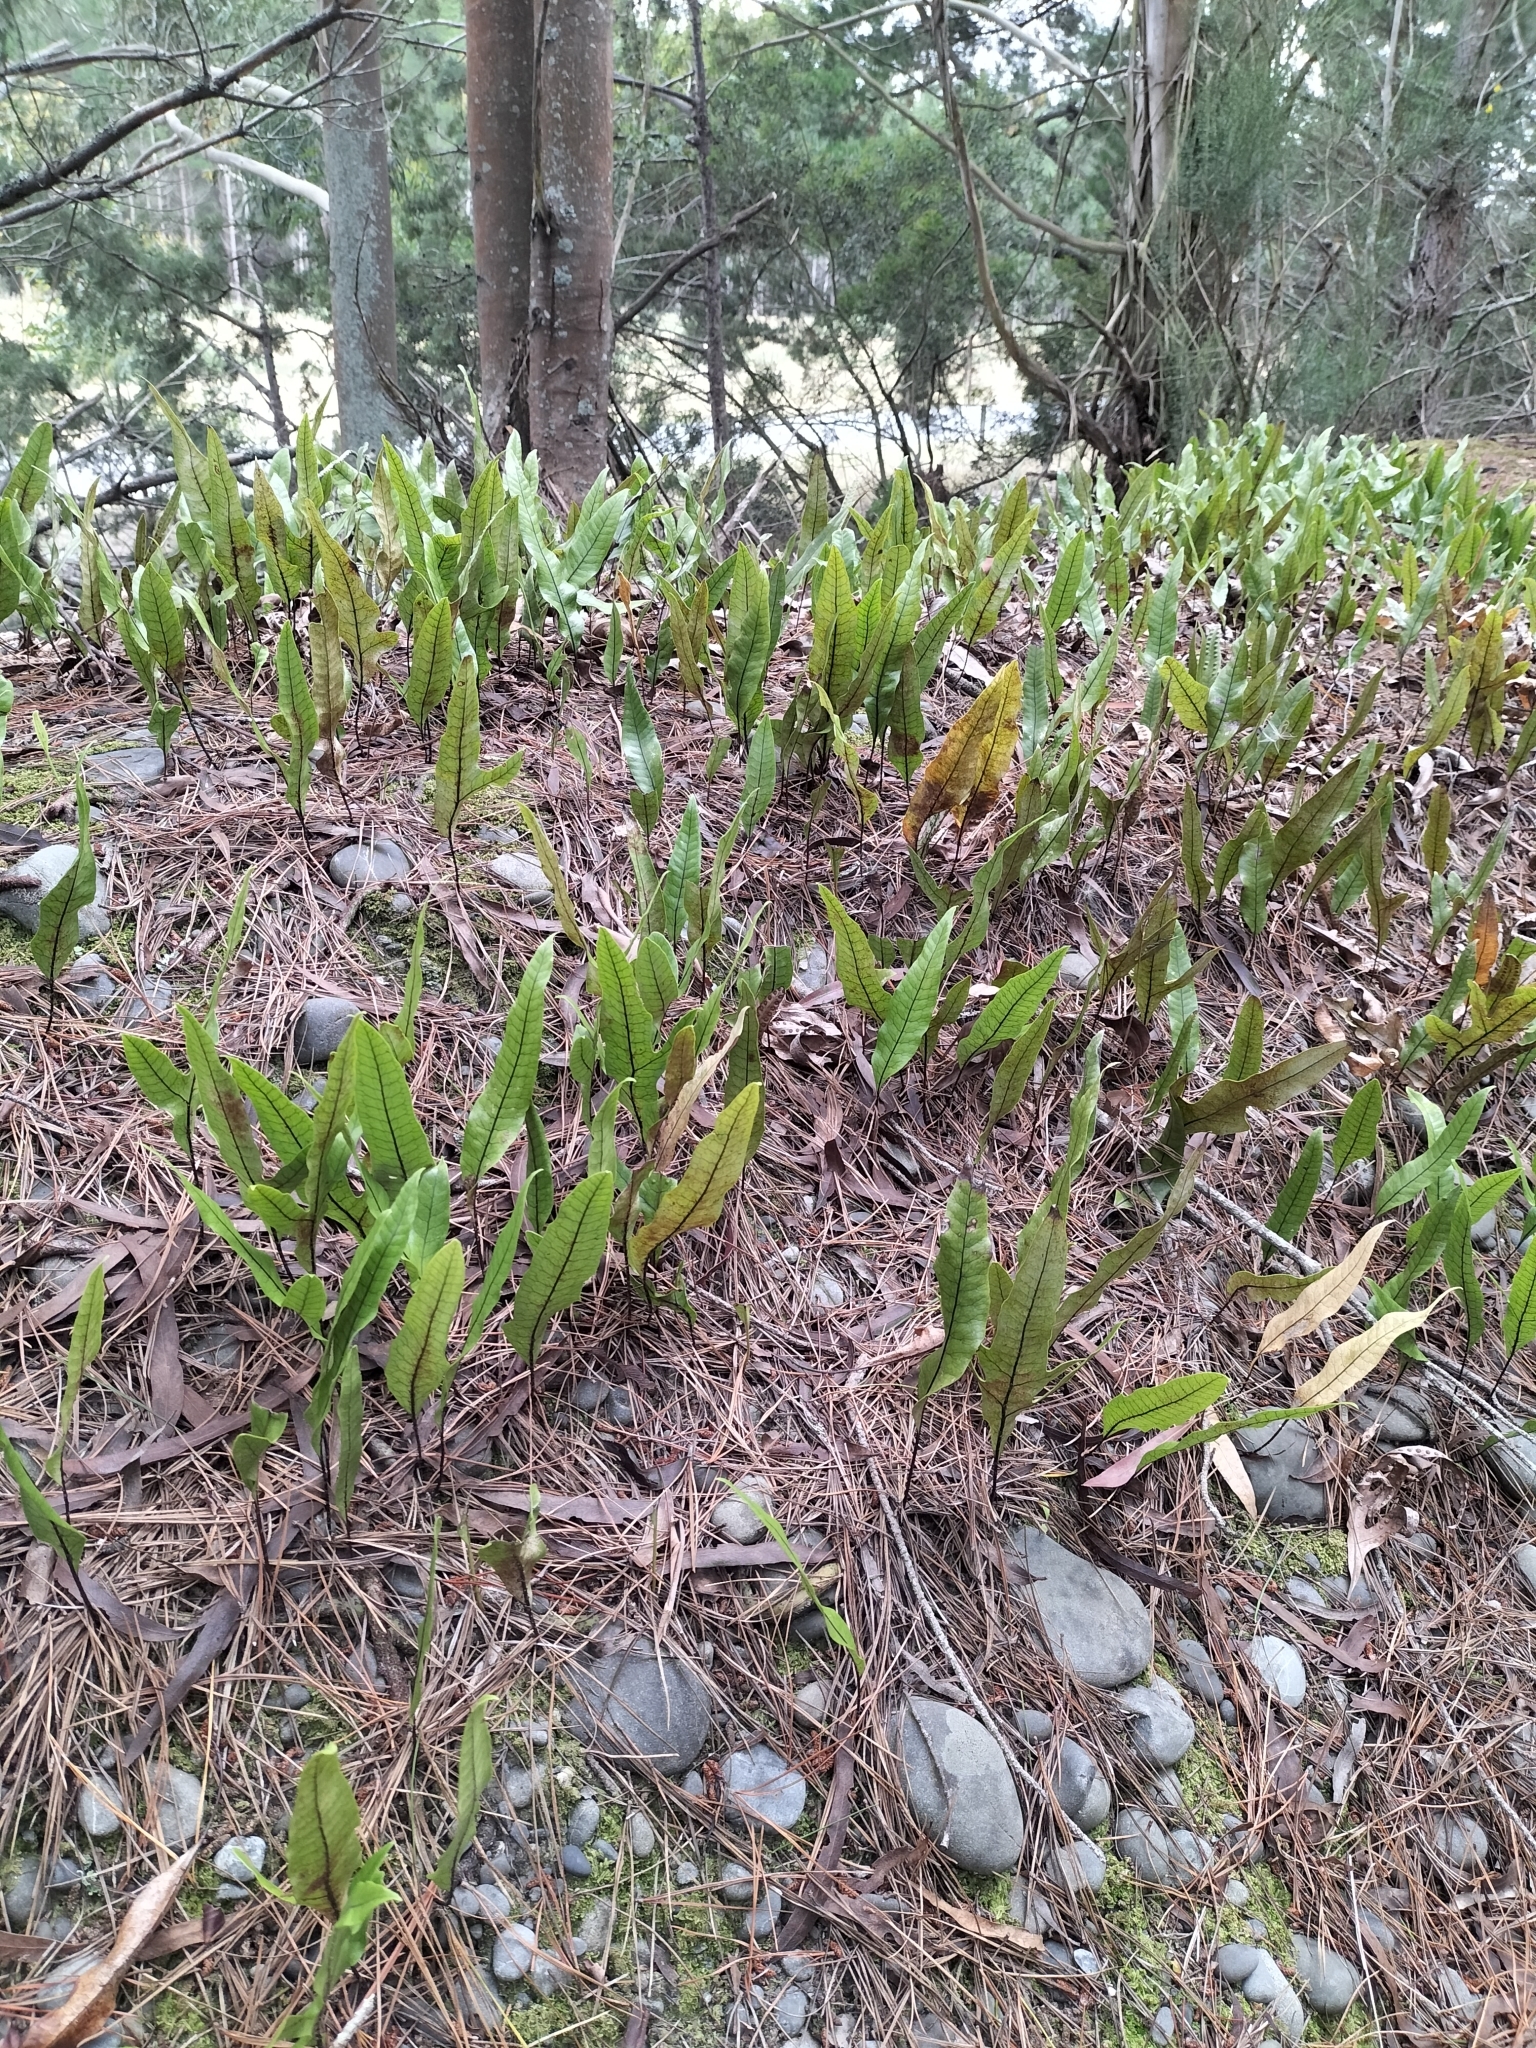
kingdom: Plantae
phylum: Tracheophyta
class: Polypodiopsida
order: Polypodiales
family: Polypodiaceae
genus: Lecanopteris
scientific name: Lecanopteris pustulata
